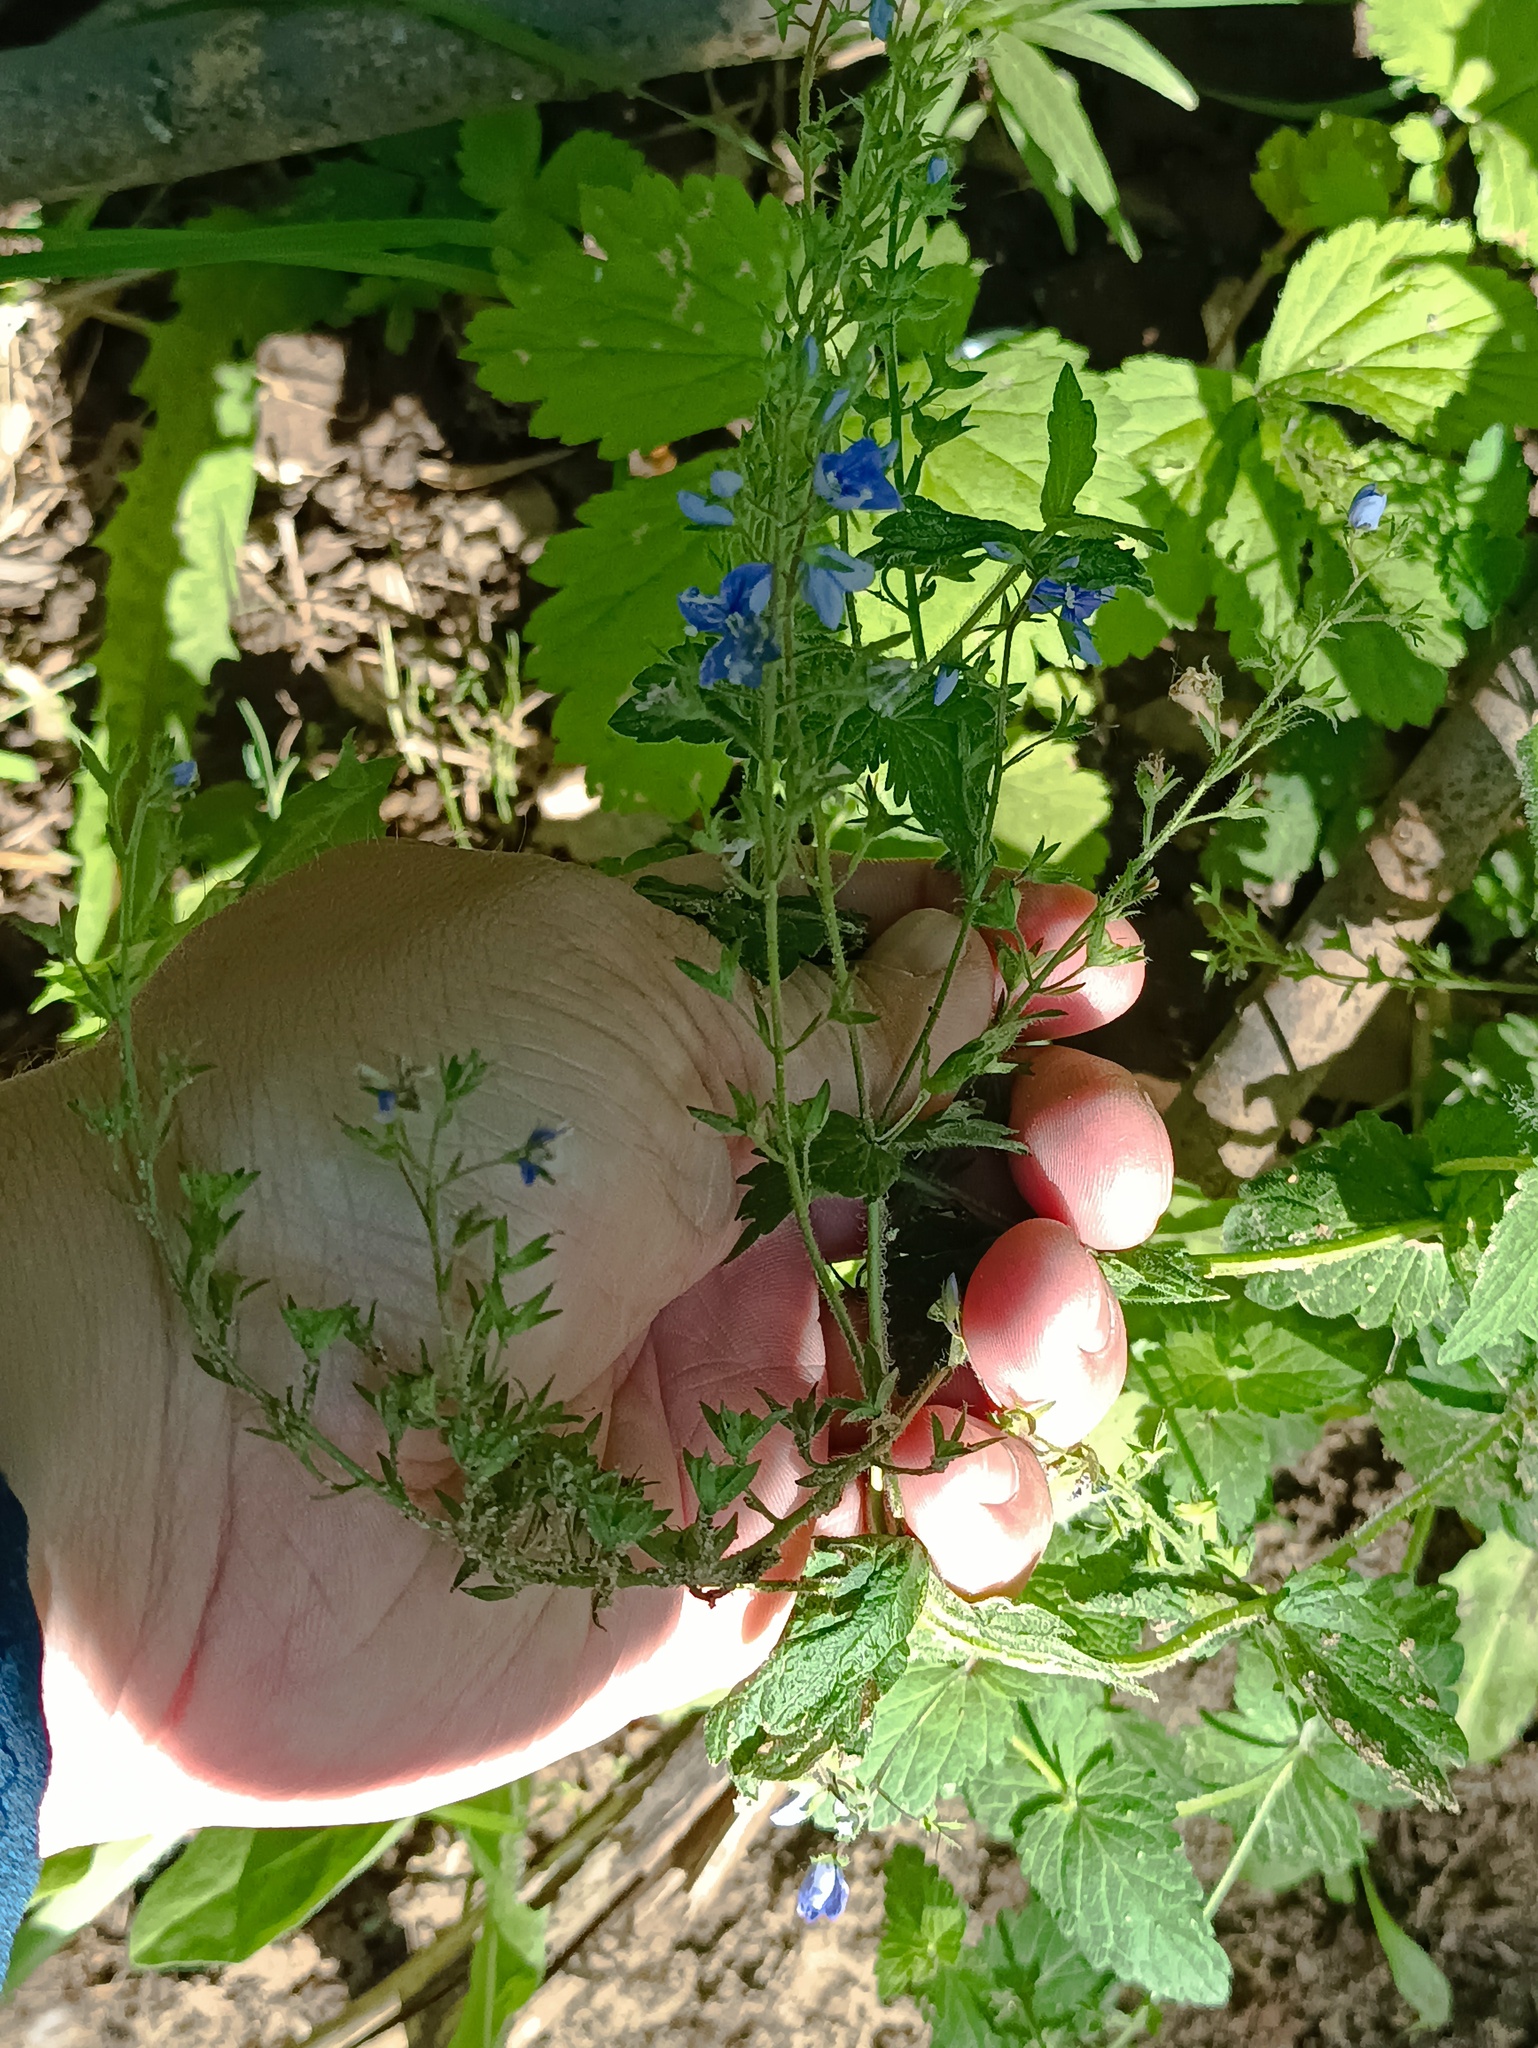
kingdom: Plantae
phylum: Tracheophyta
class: Magnoliopsida
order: Lamiales
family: Plantaginaceae
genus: Veronica
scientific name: Veronica chamaedrys
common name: Germander speedwell
